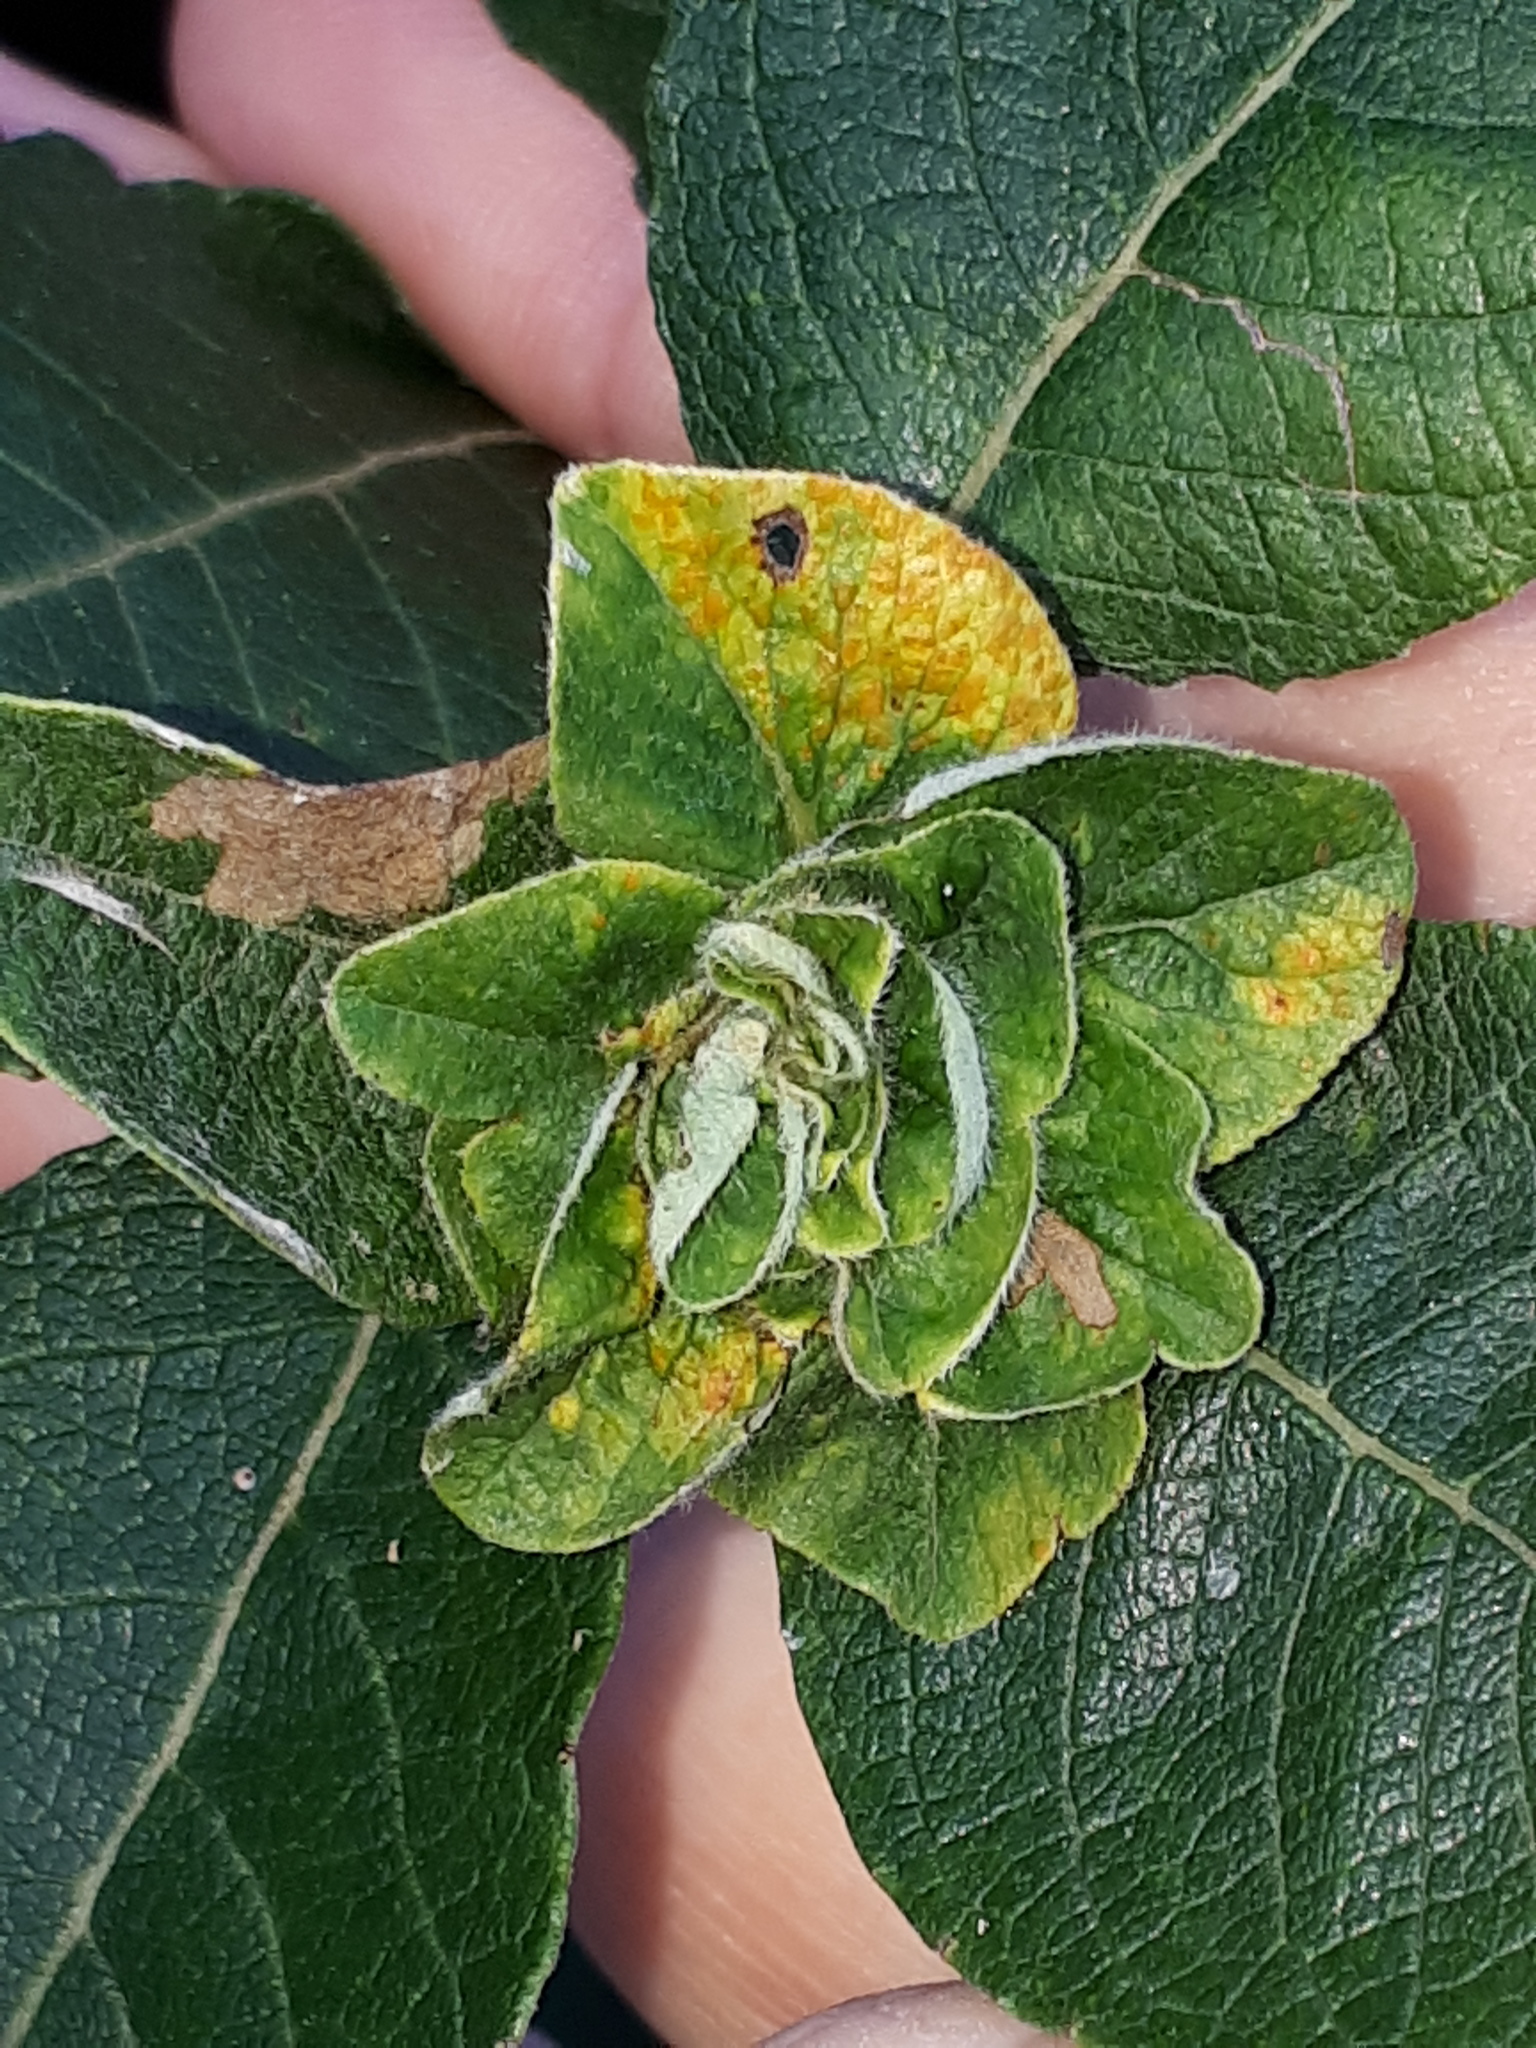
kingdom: Animalia
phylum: Arthropoda
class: Insecta
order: Diptera
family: Cecidomyiidae
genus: Rabdophaga
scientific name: Rabdophaga rosaria
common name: Willow rose gall midge
